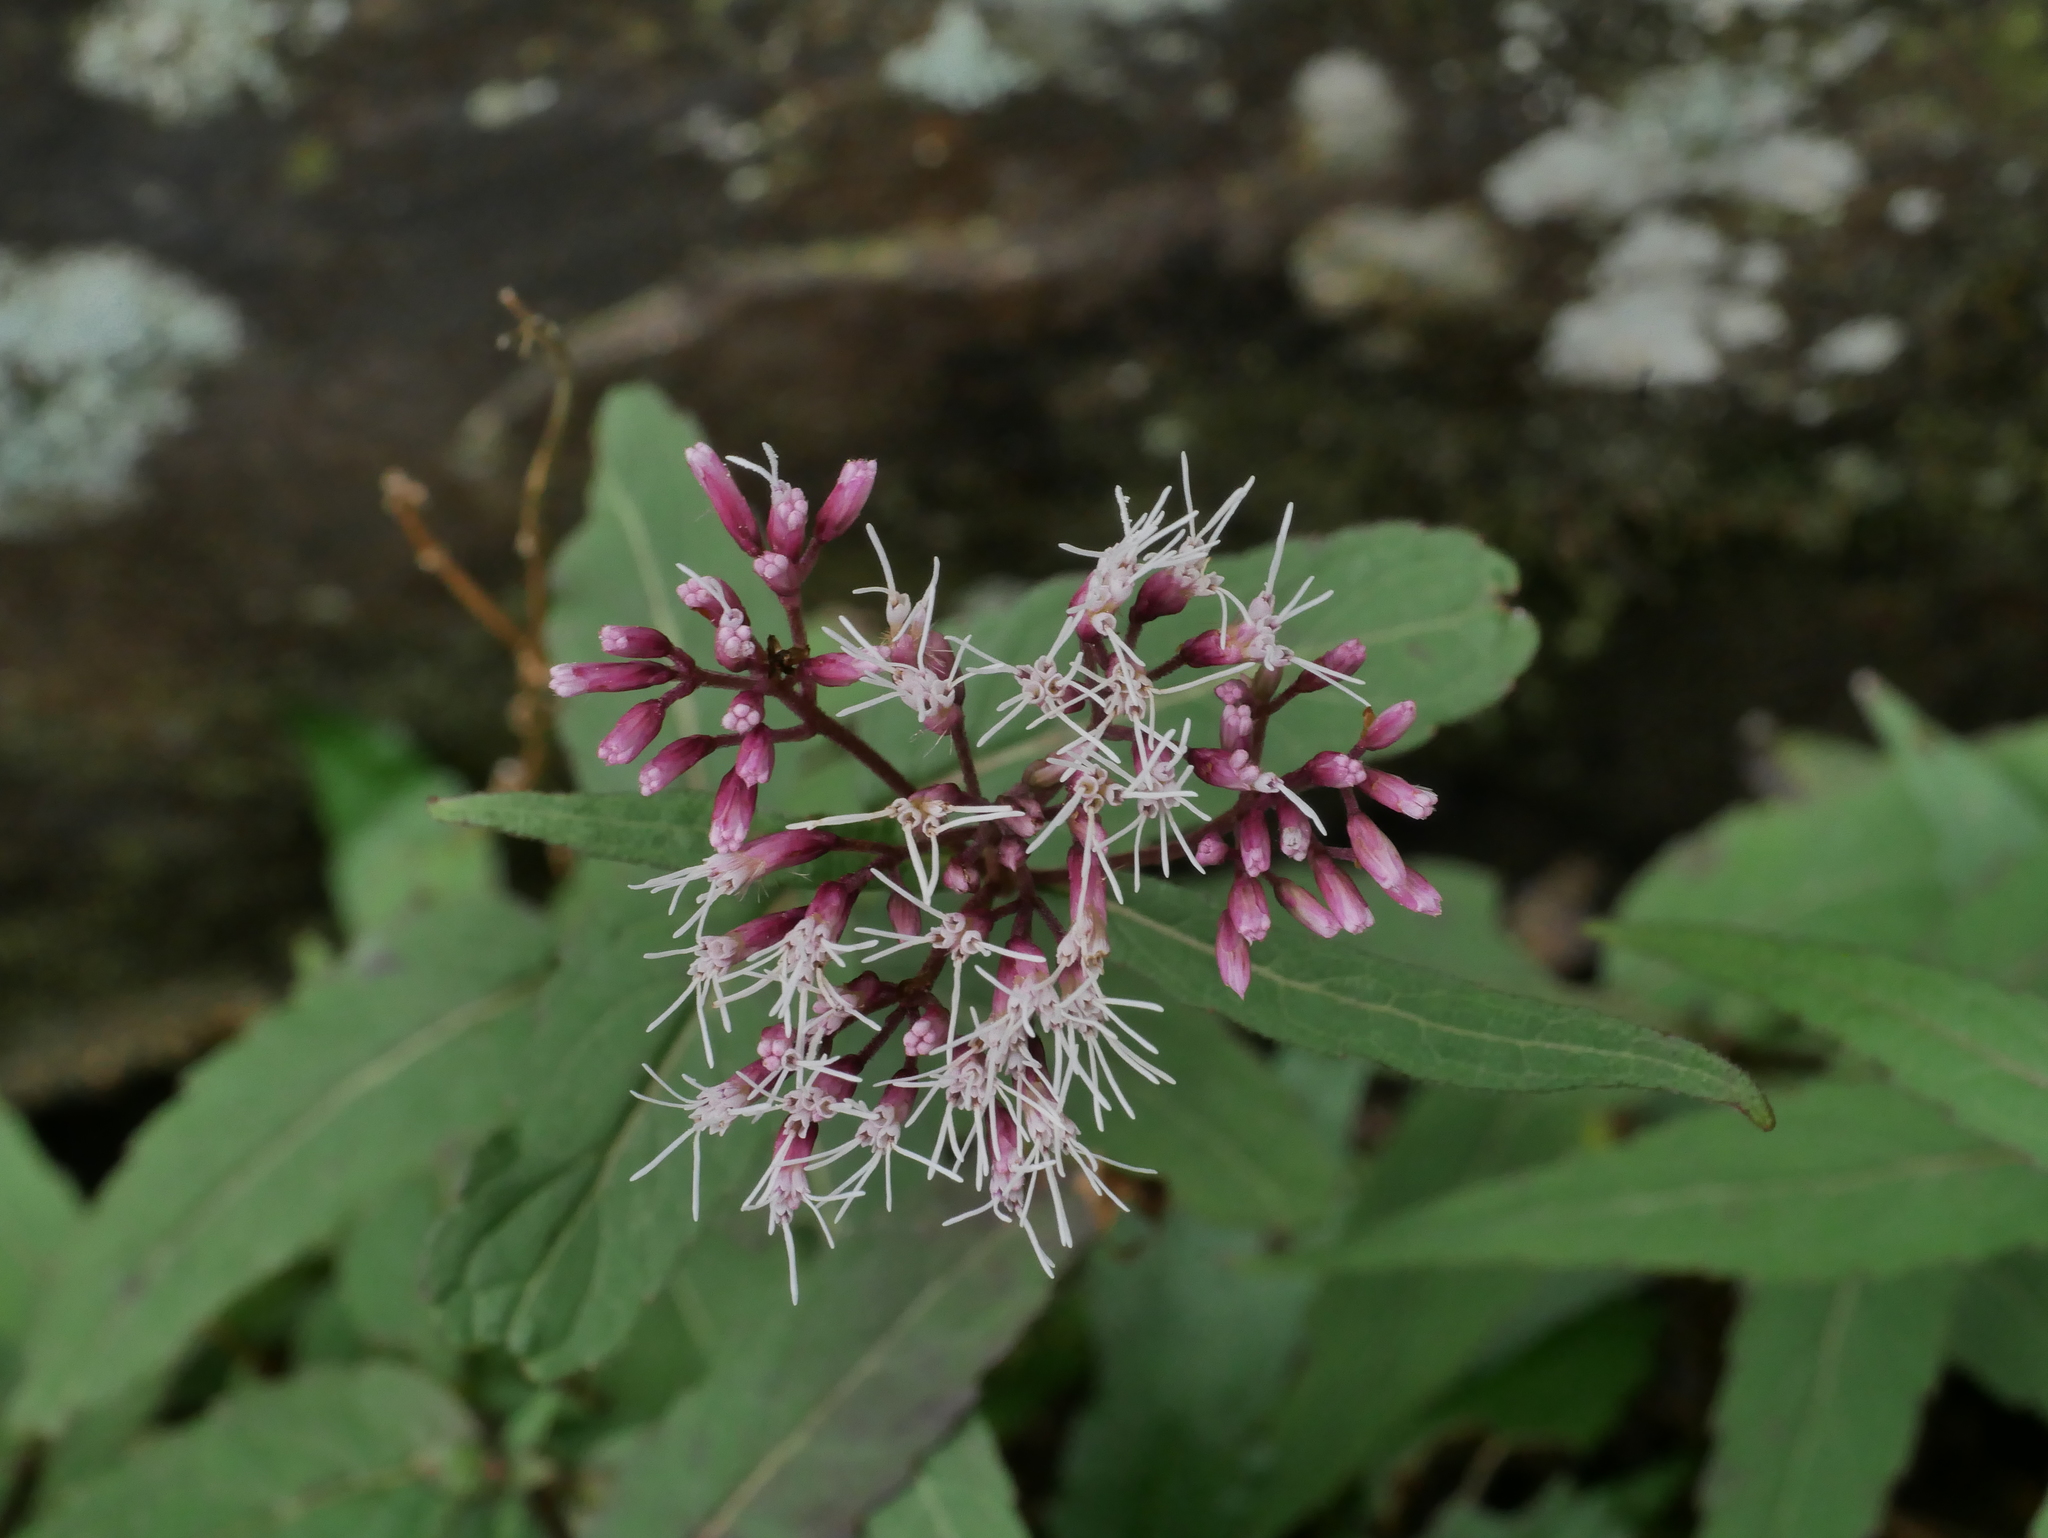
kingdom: Plantae
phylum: Tracheophyta
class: Magnoliopsida
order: Asterales
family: Asteraceae
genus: Eupatorium
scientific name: Eupatorium japonicum
